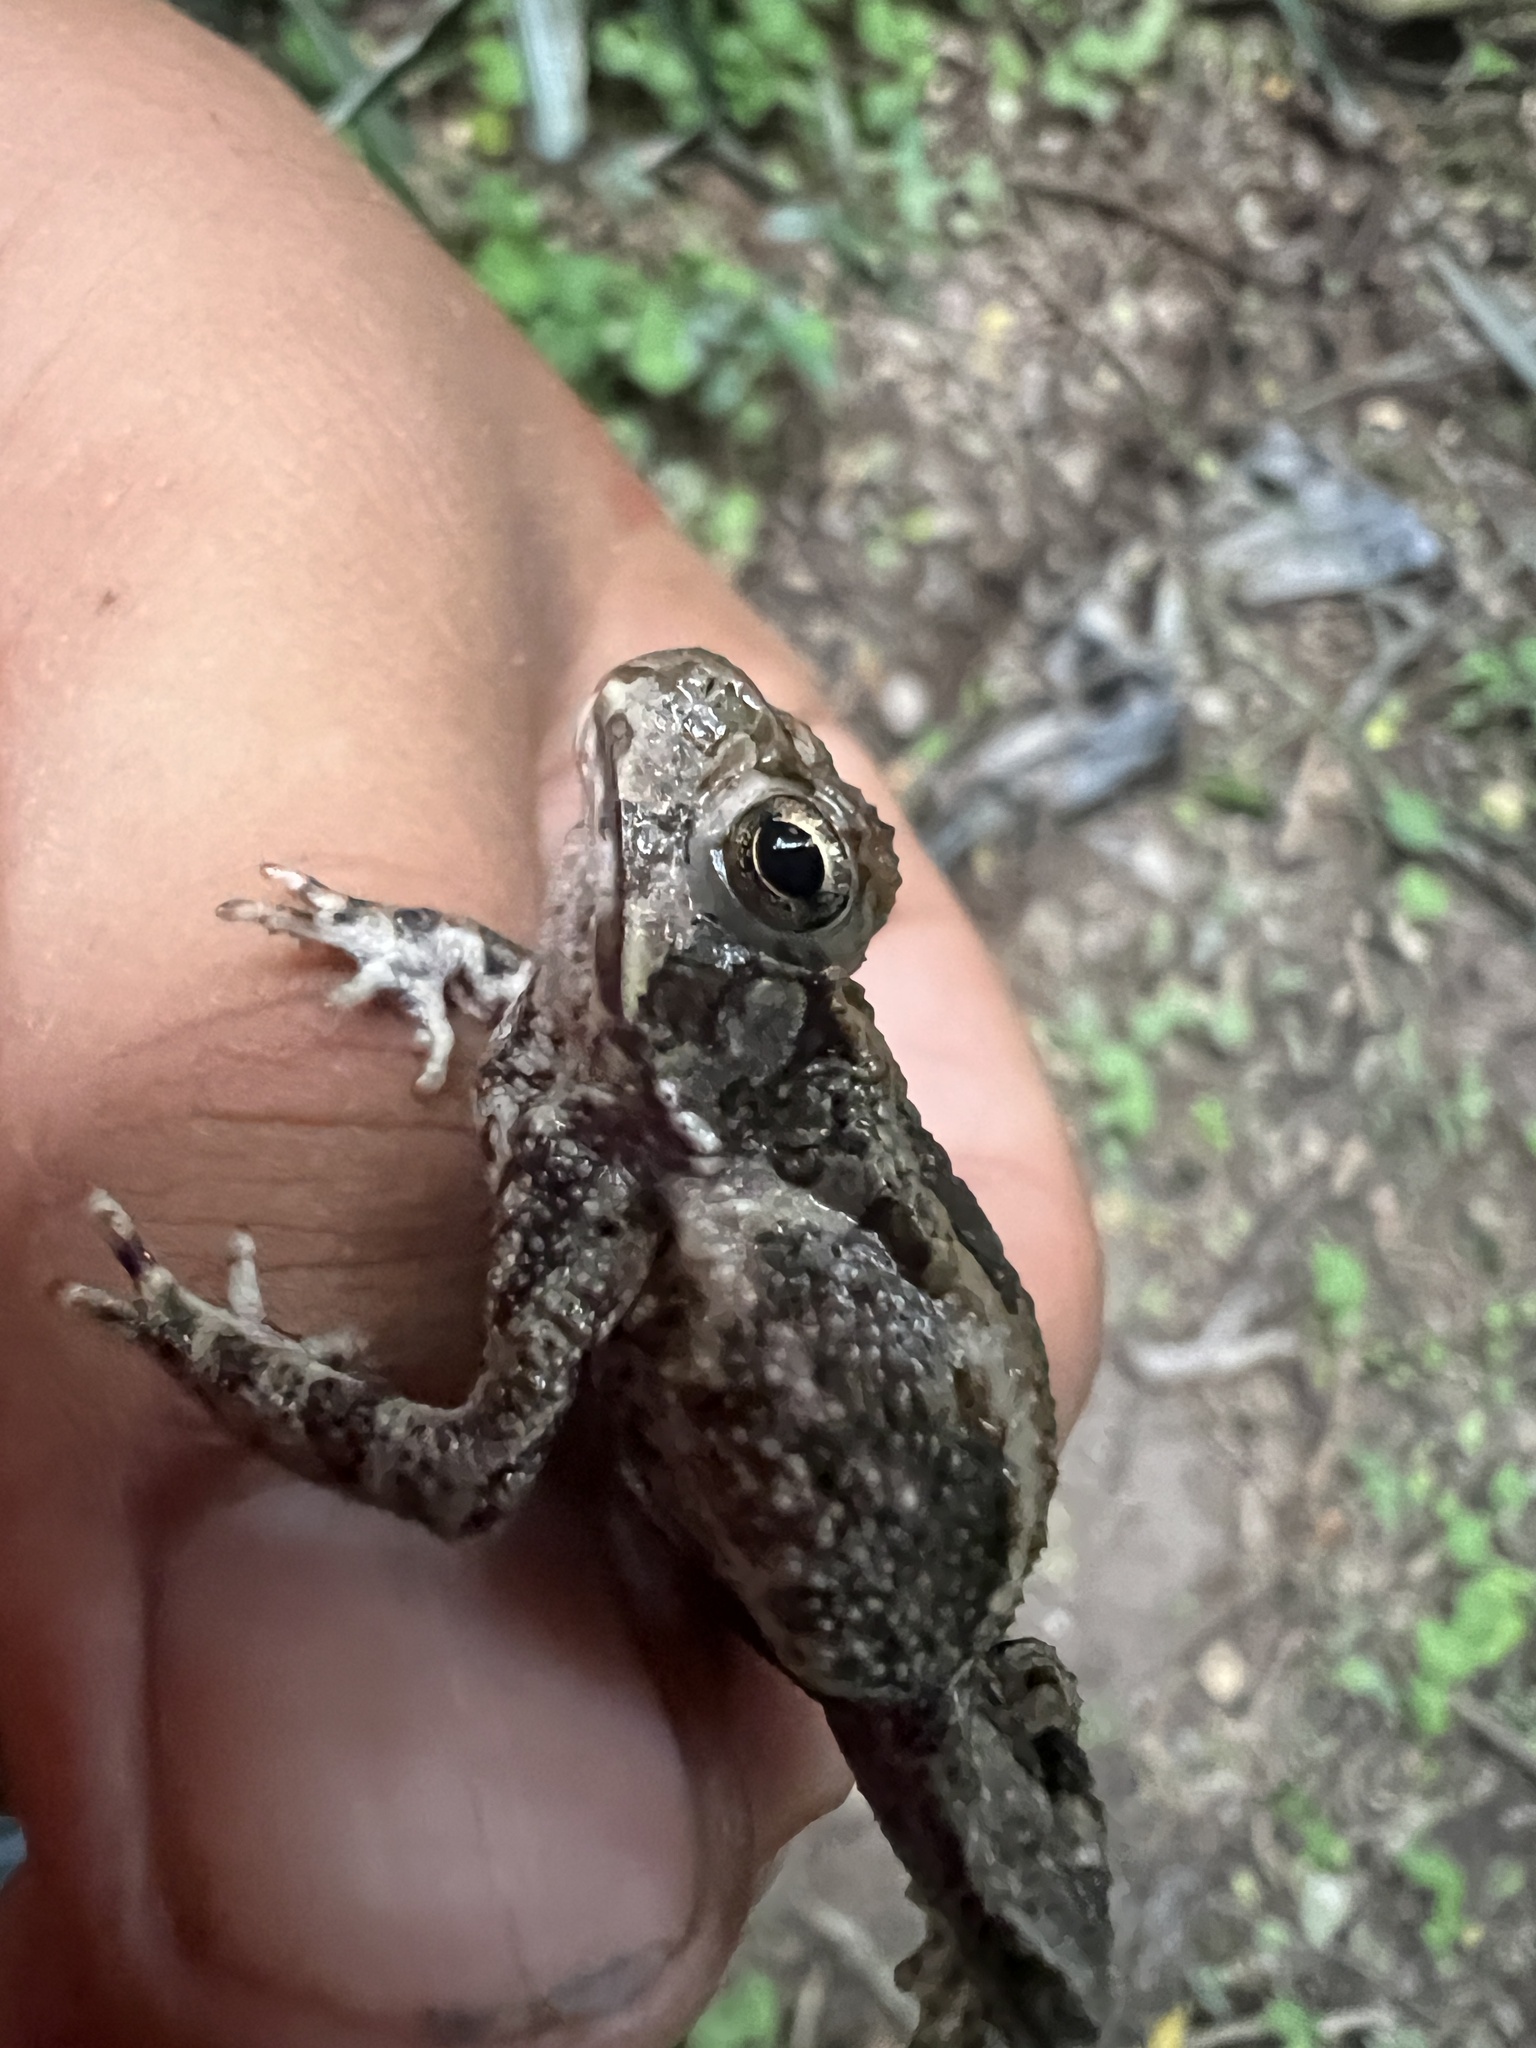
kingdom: Animalia
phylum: Chordata
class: Amphibia
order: Anura
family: Bufonidae
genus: Rhinella
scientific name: Rhinella diptycha
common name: Cope's toad
